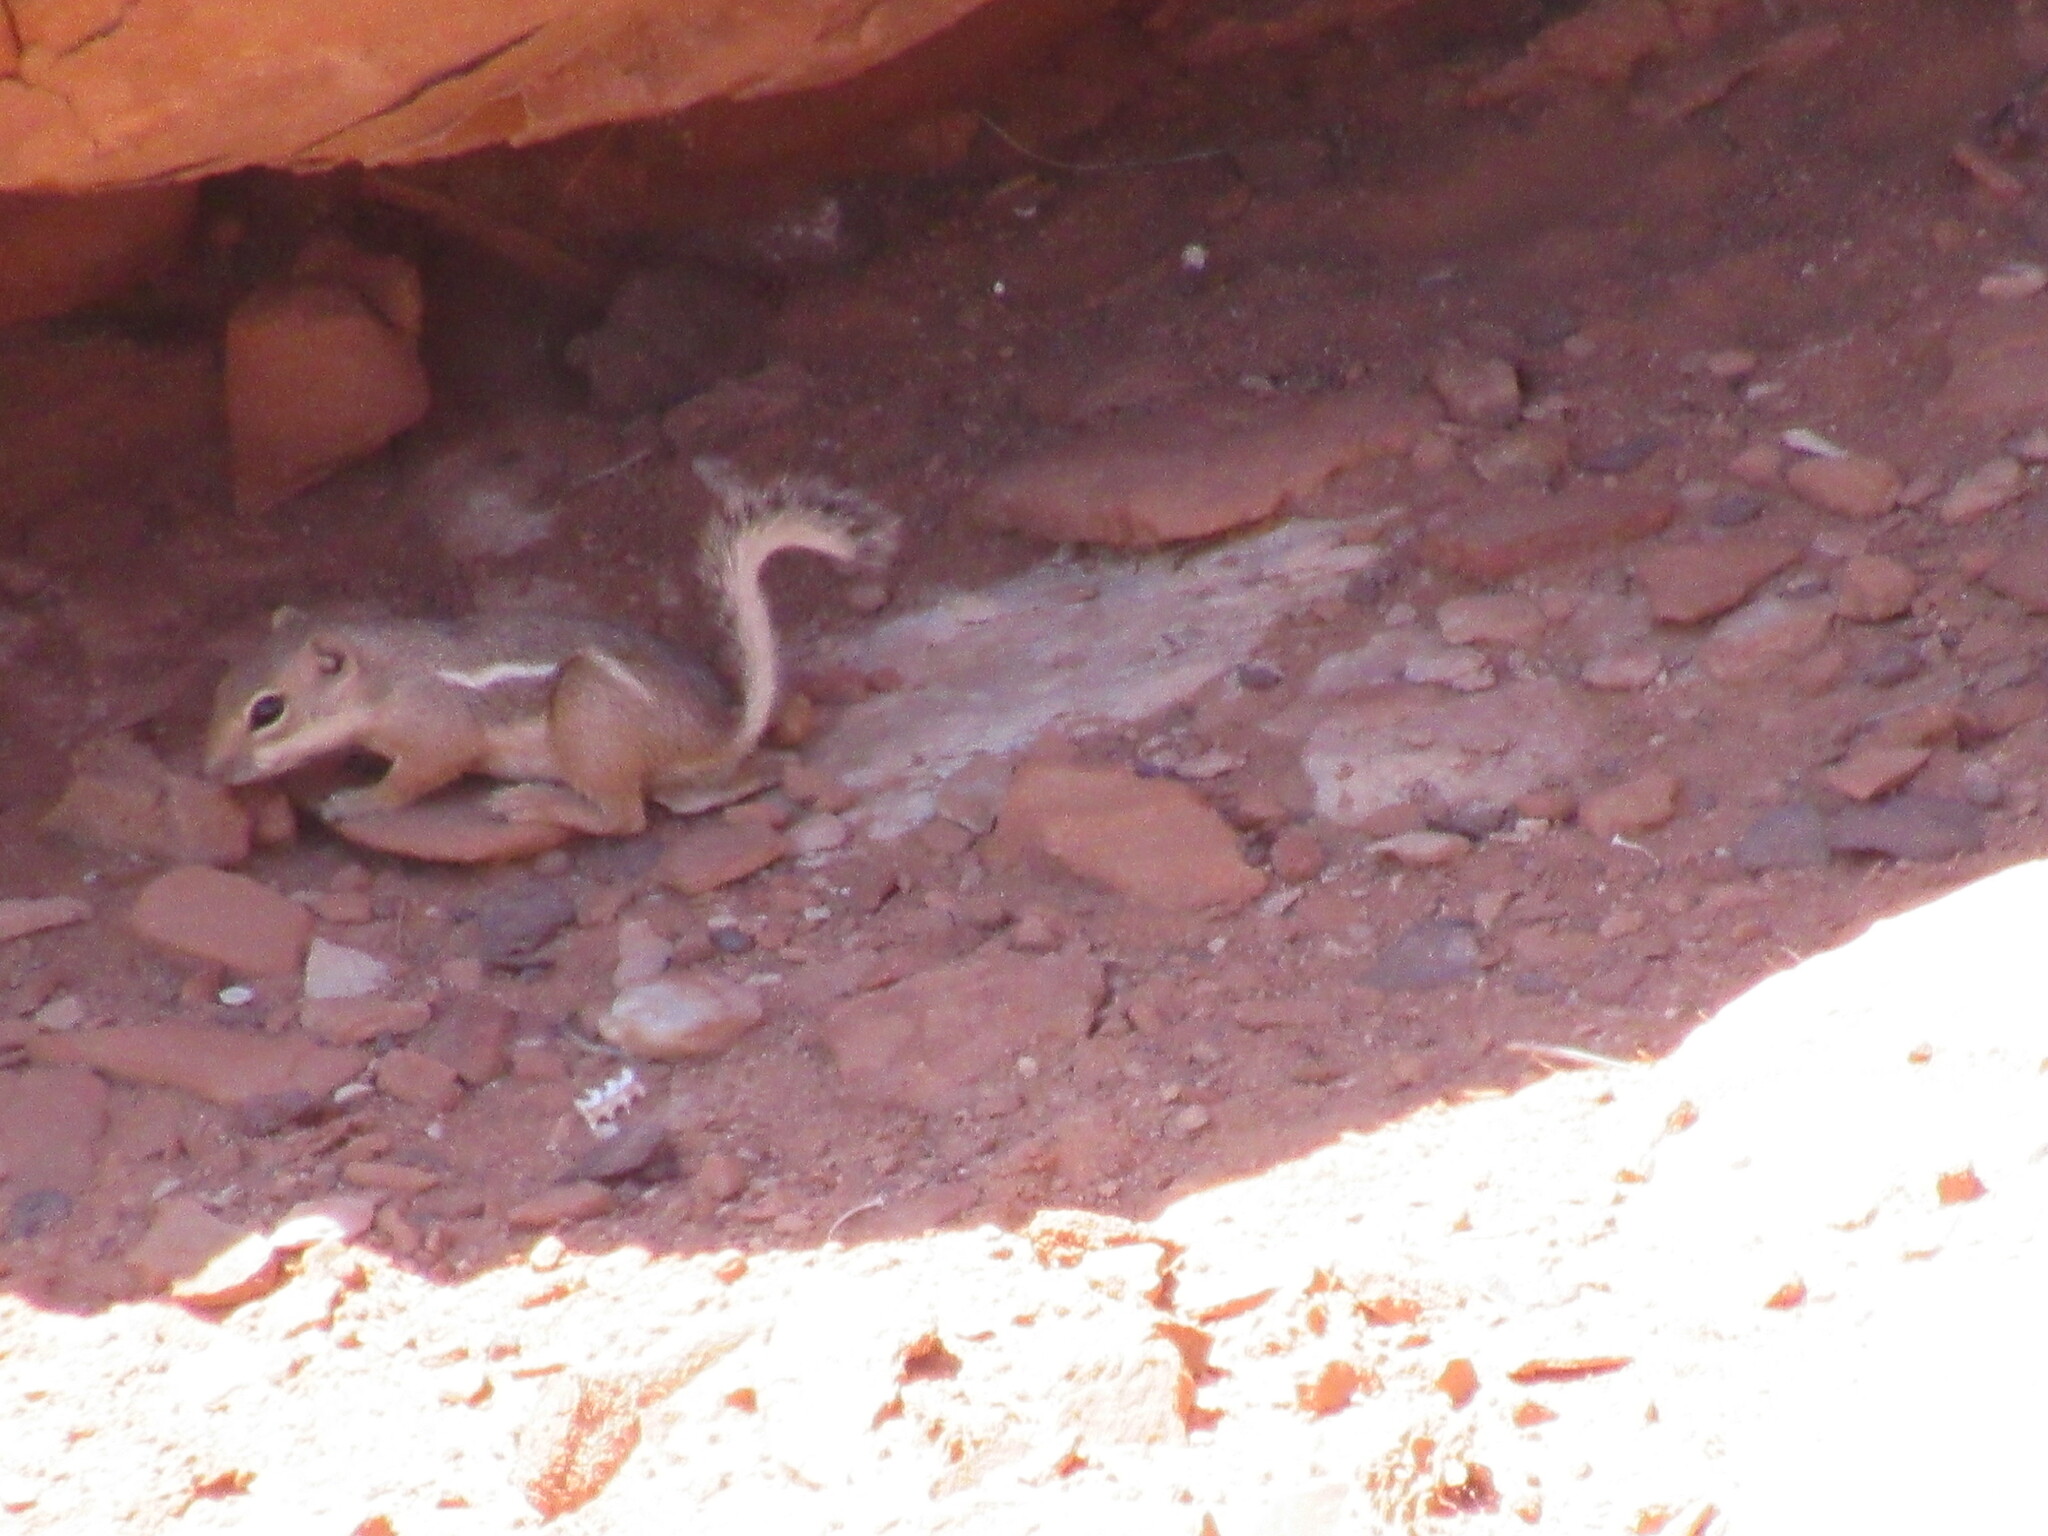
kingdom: Animalia
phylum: Chordata
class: Mammalia
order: Rodentia
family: Sciuridae
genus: Ammospermophilus
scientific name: Ammospermophilus leucurus
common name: White-tailed antelope squirrel
